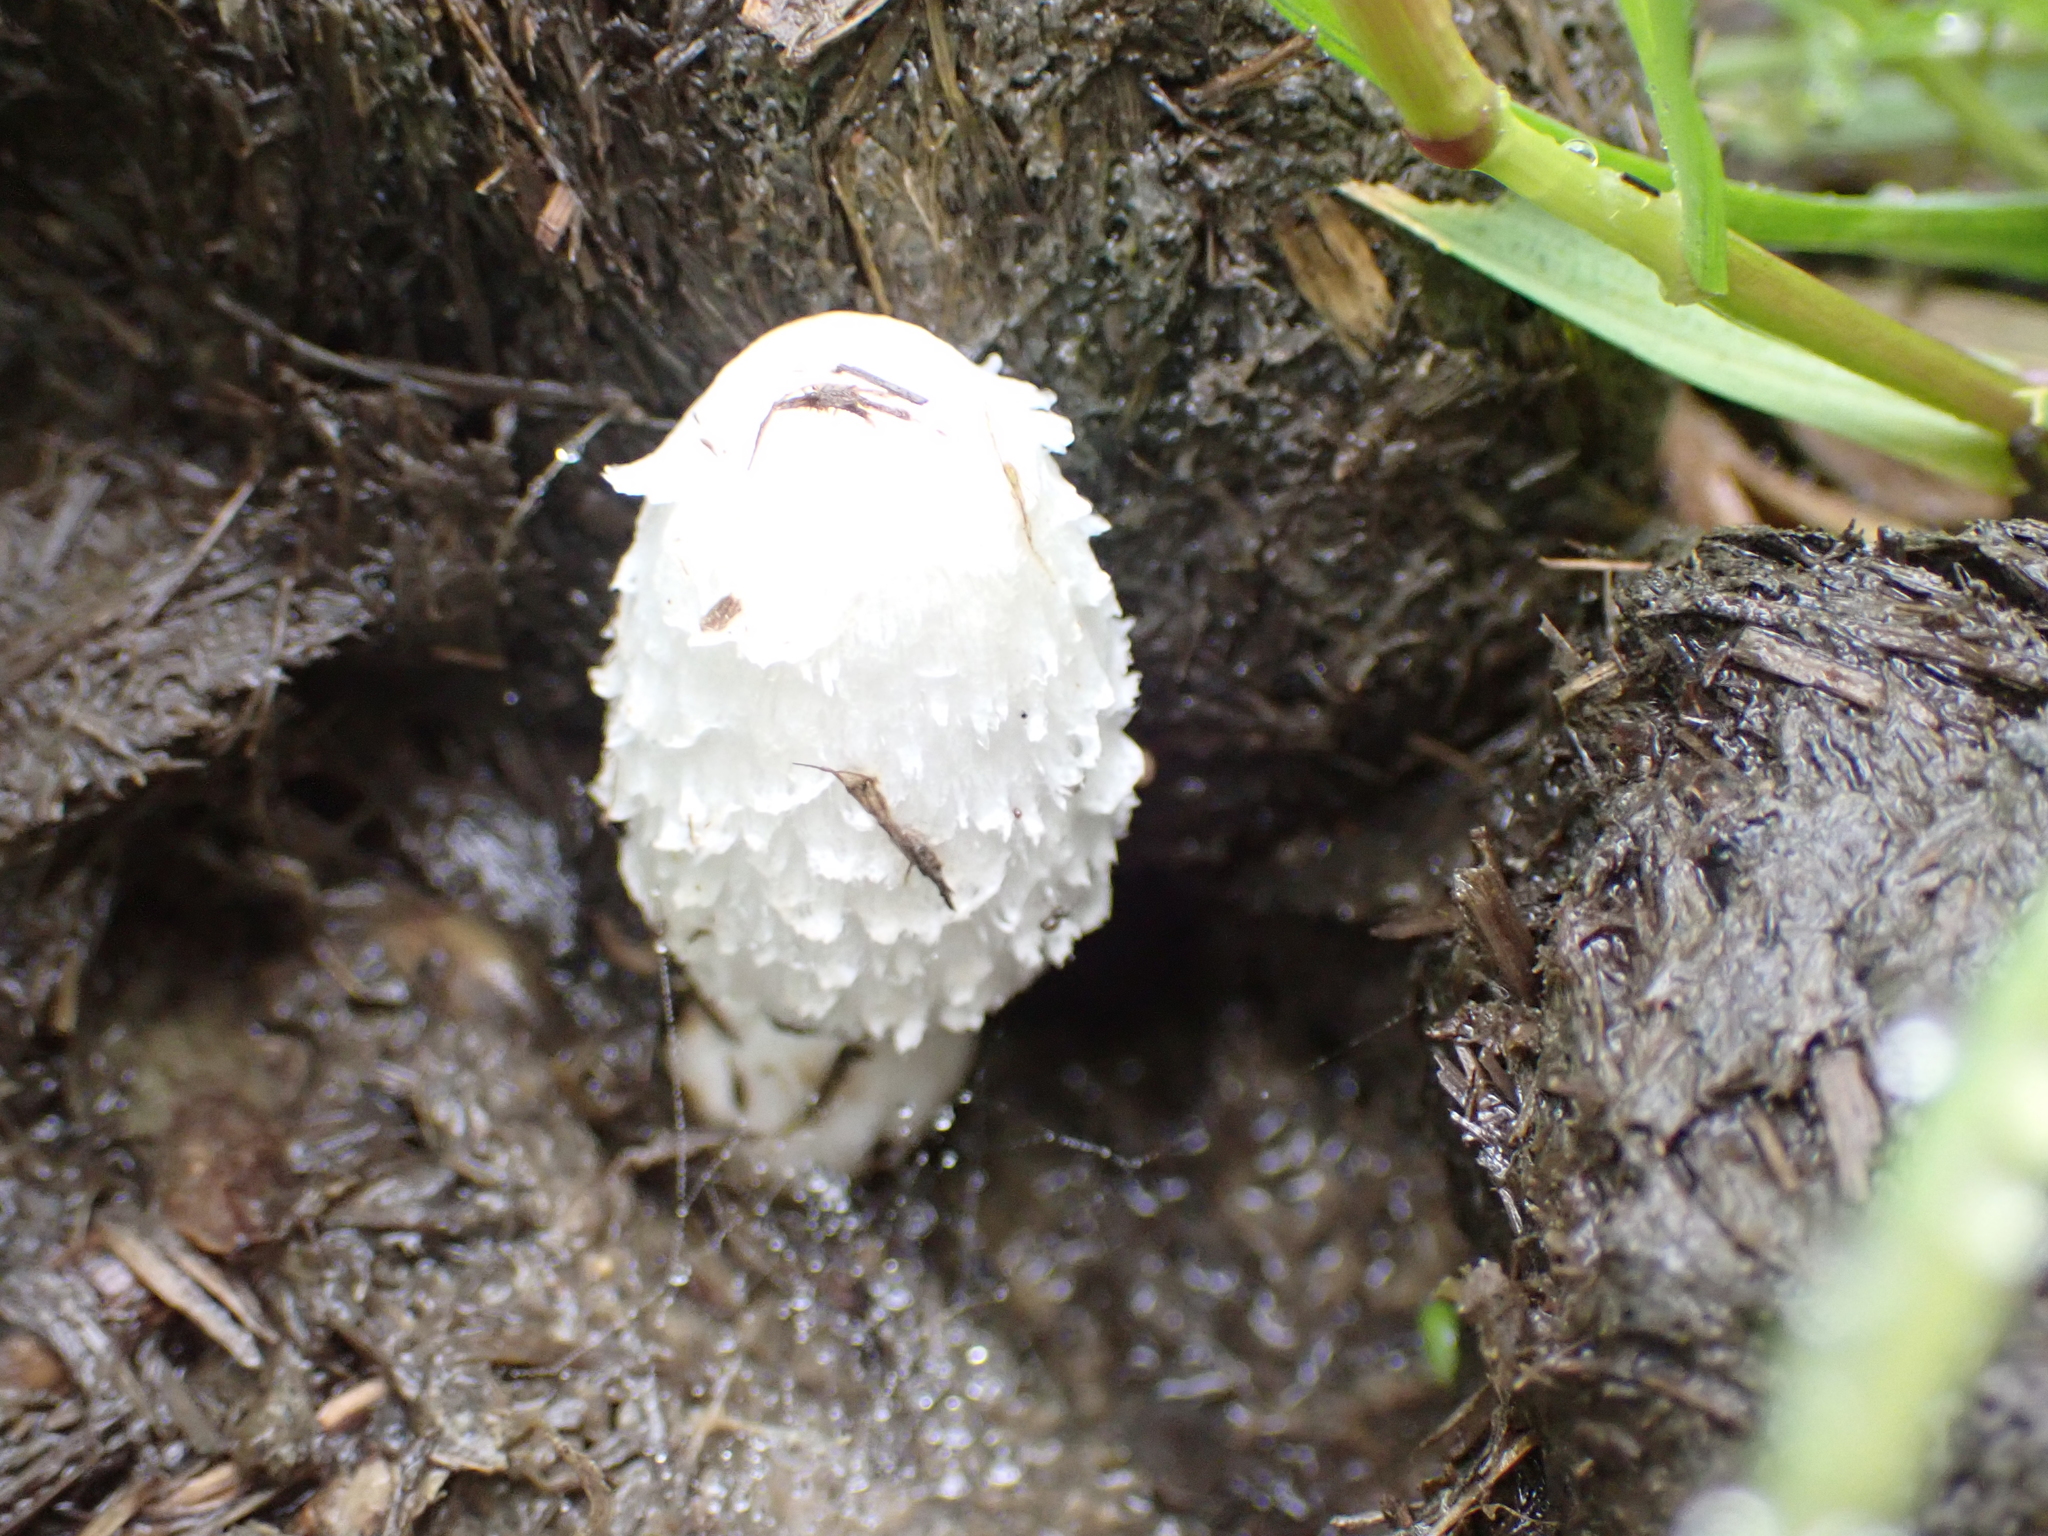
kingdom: Fungi
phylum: Basidiomycota
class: Agaricomycetes
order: Agaricales
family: Agaricaceae
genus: Coprinus
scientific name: Coprinus comatus
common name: Lawyer's wig
